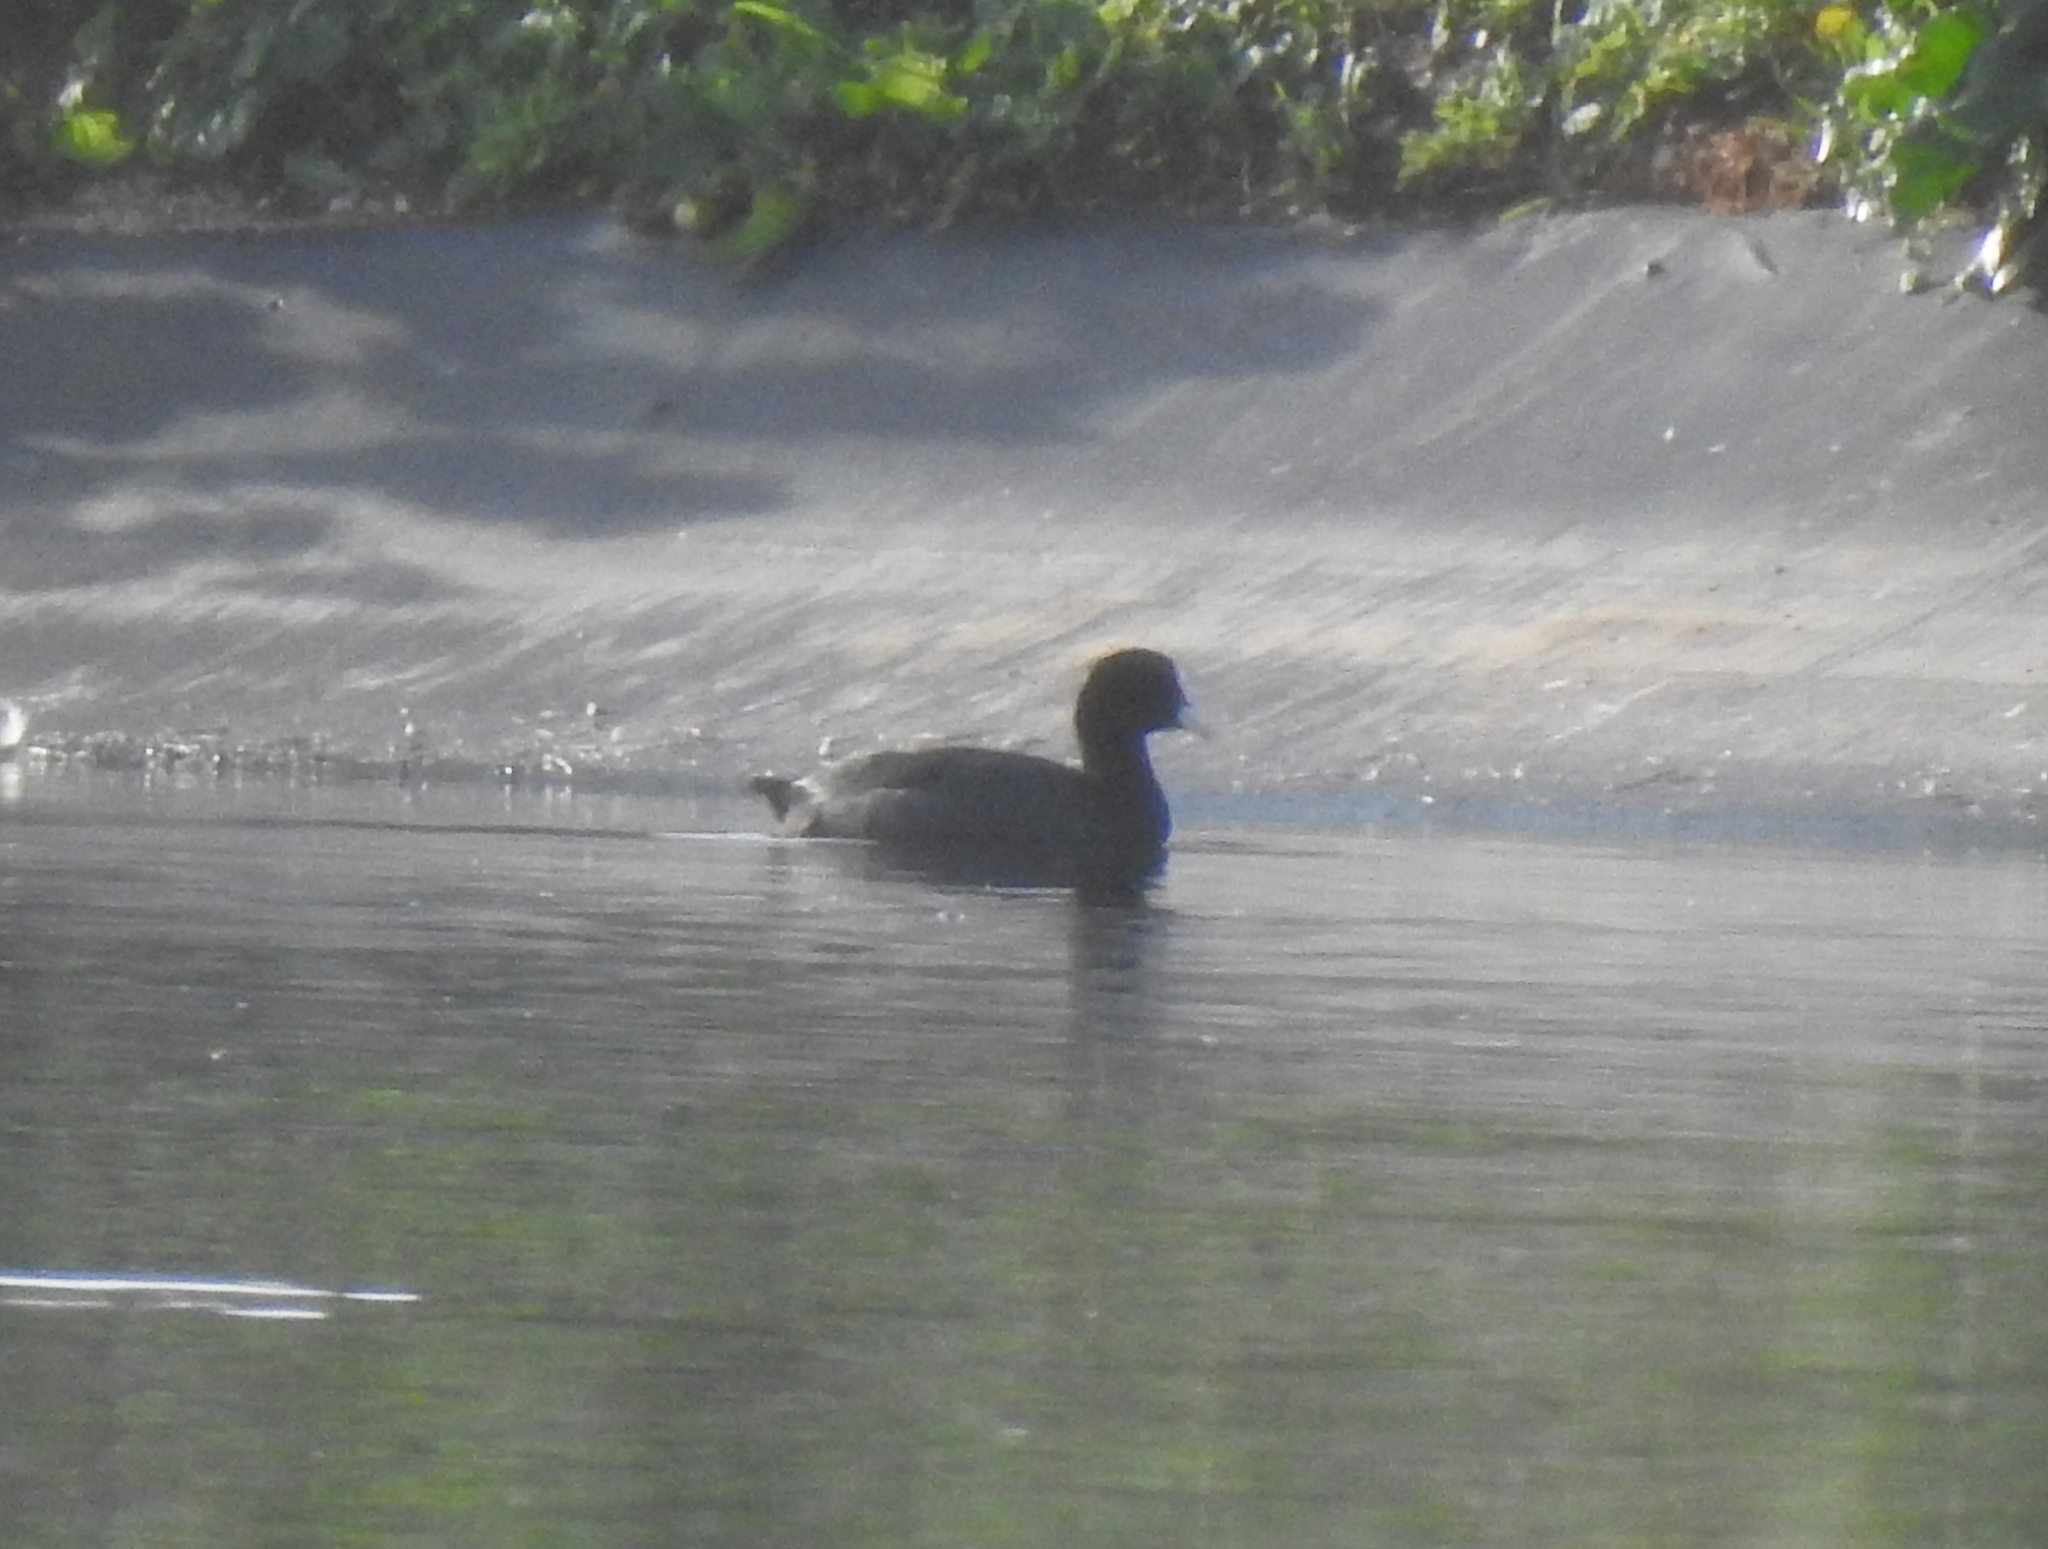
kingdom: Animalia
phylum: Chordata
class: Aves
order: Gruiformes
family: Rallidae
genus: Fulica
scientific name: Fulica atra
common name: Eurasian coot
